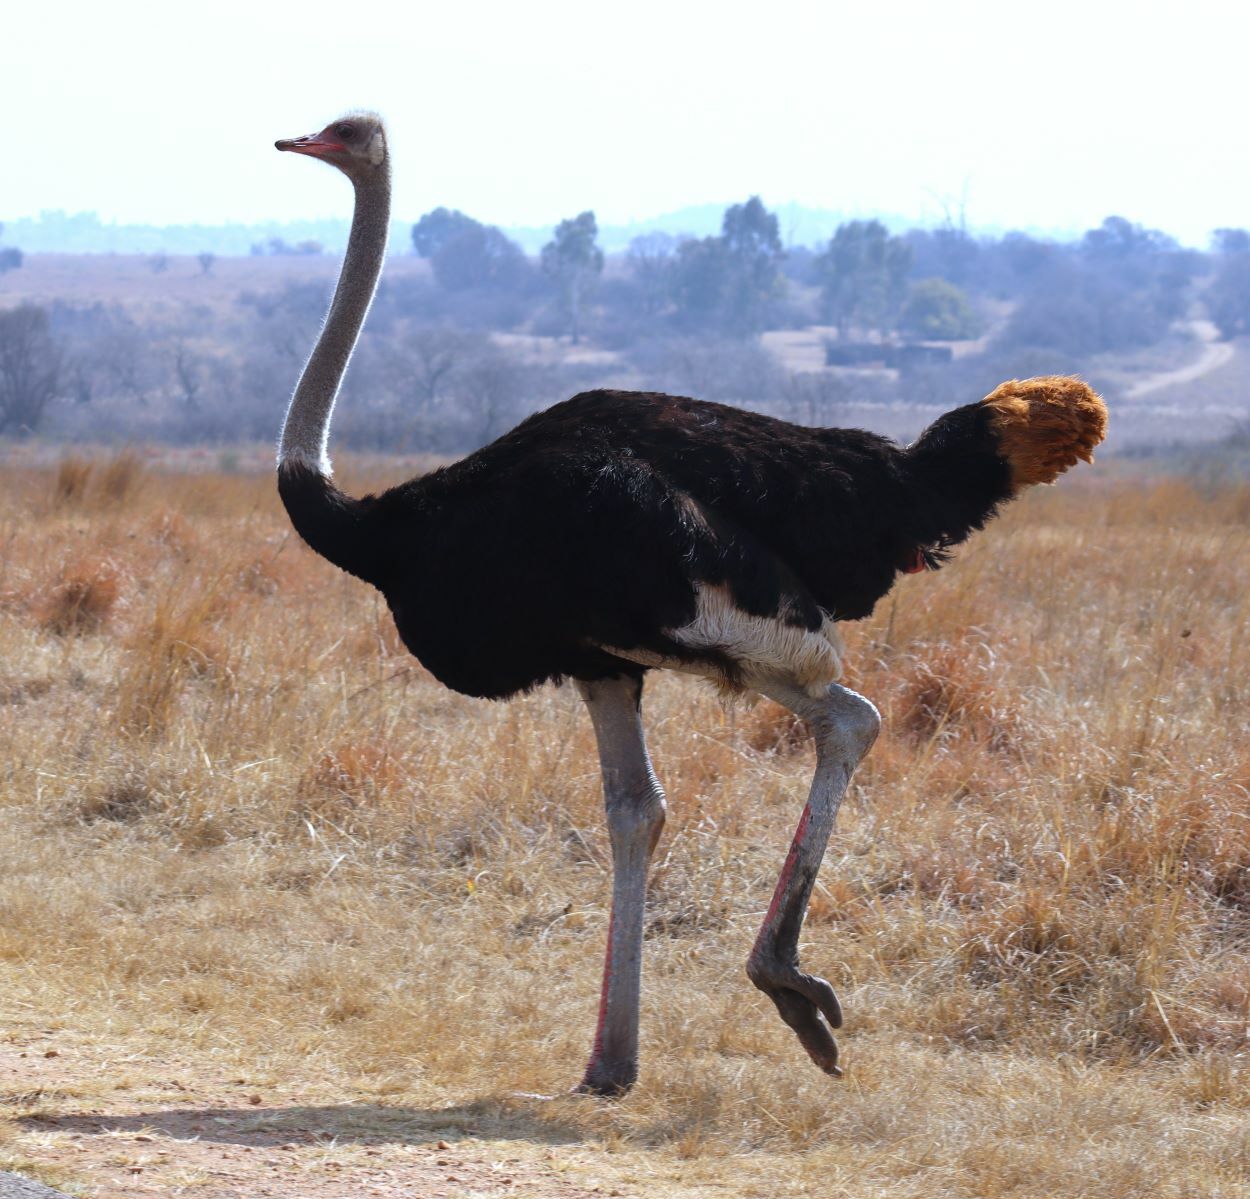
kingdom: Animalia
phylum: Chordata
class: Aves
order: Struthioniformes
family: Struthionidae
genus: Struthio
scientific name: Struthio camelus
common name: Common ostrich
